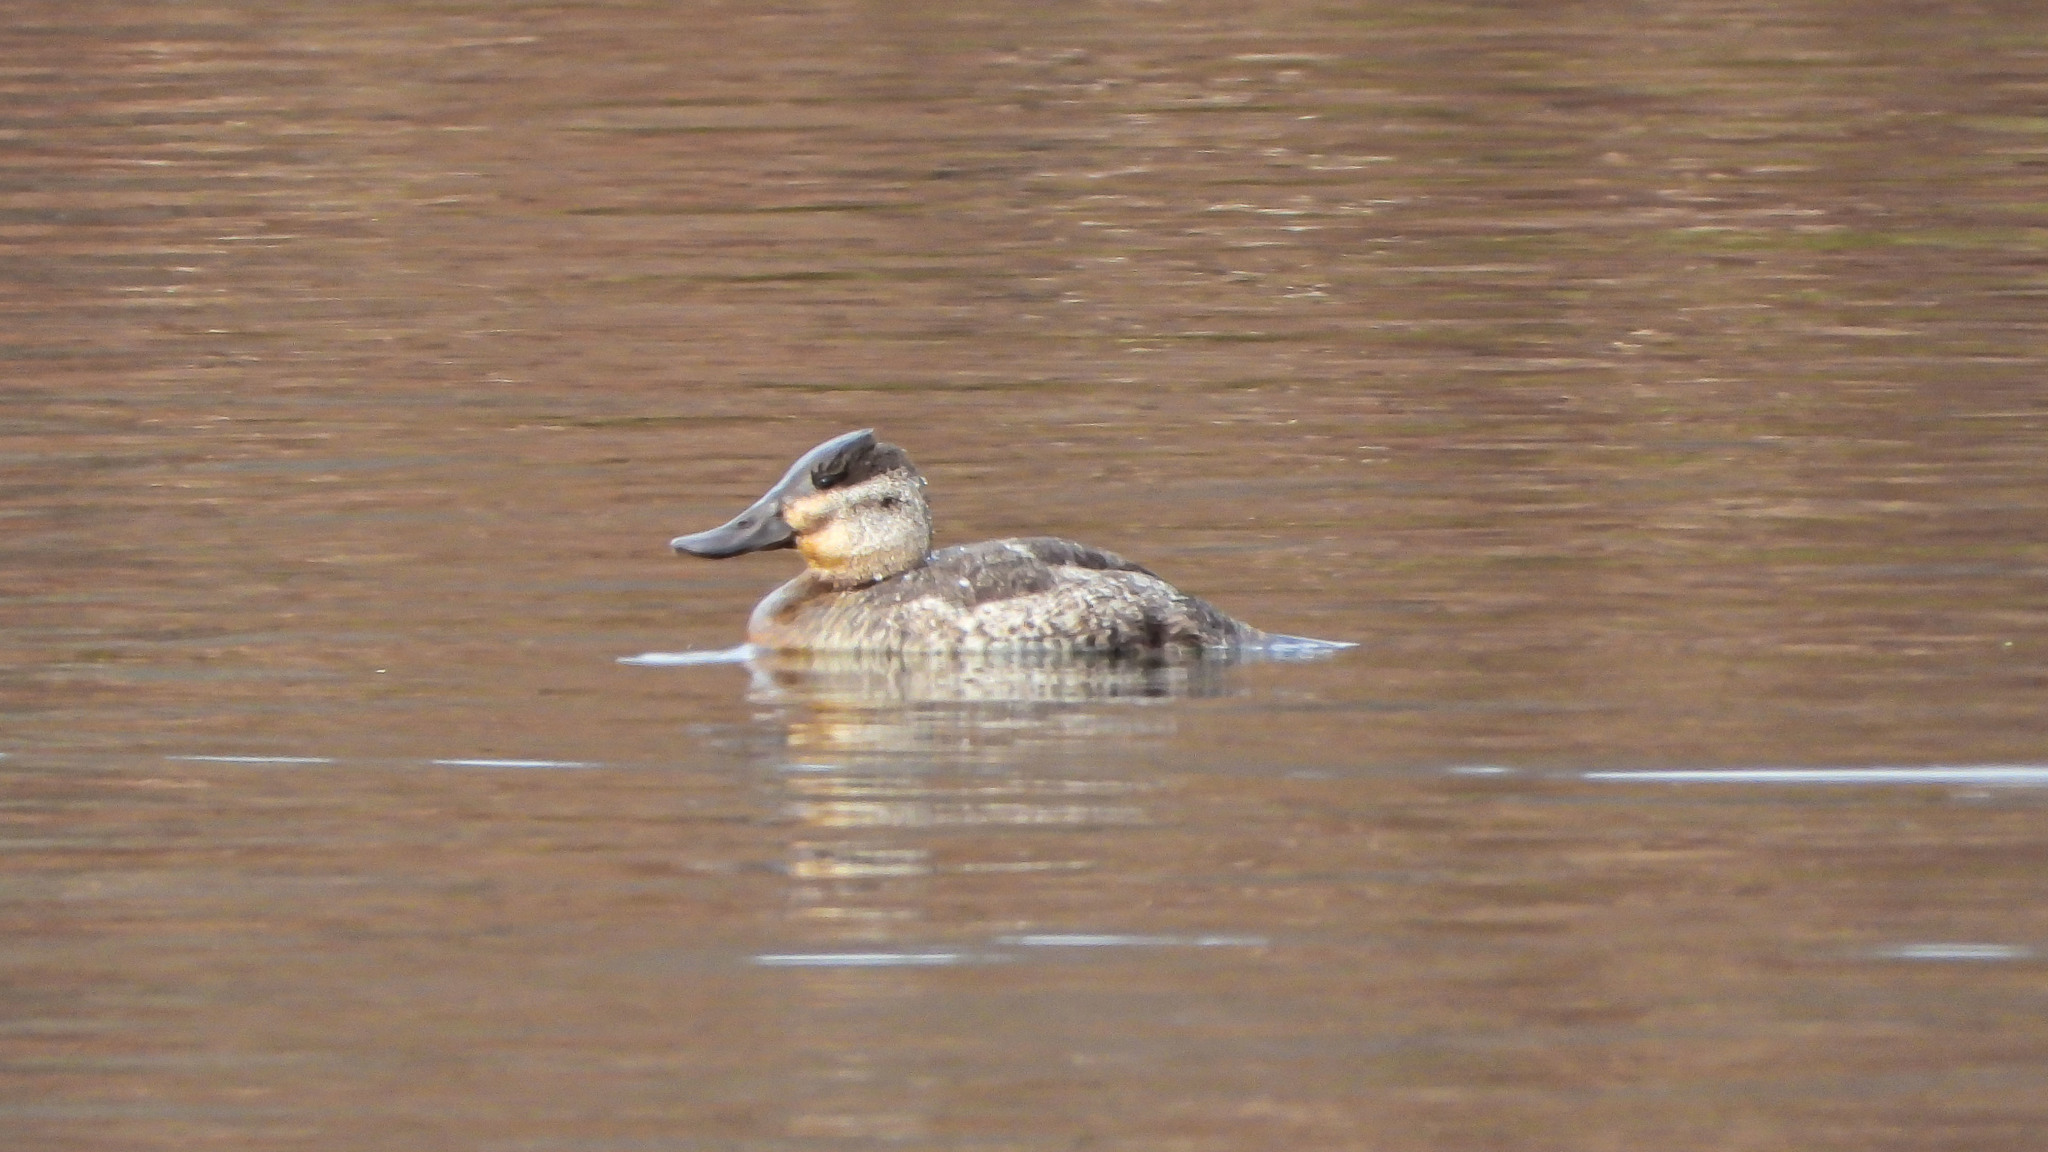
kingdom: Animalia
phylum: Chordata
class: Aves
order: Anseriformes
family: Anatidae
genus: Oxyura
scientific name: Oxyura jamaicensis
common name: Ruddy duck
